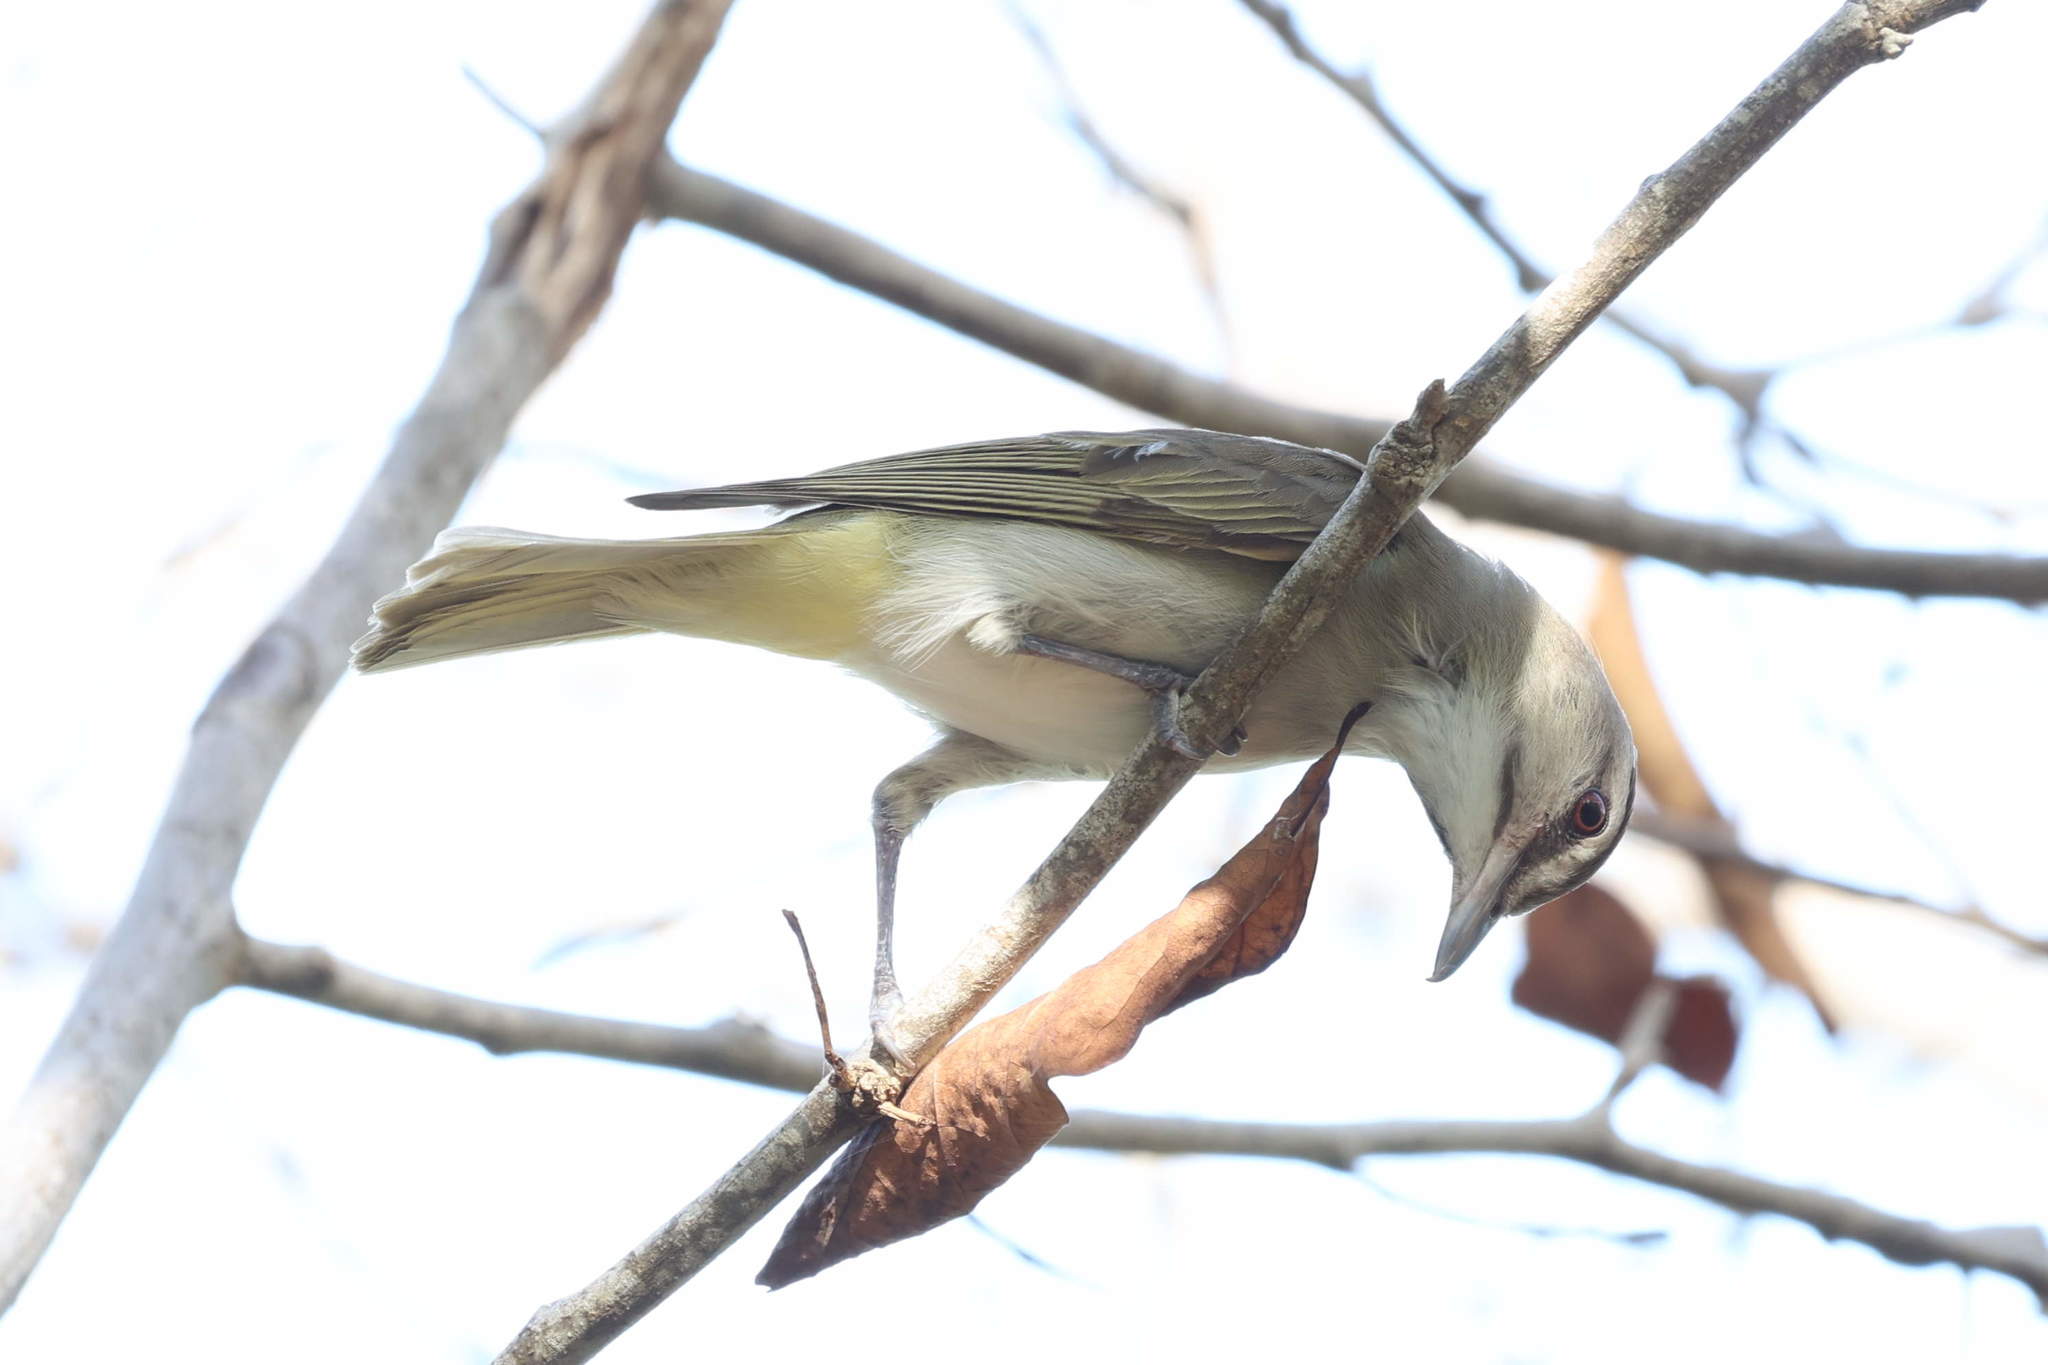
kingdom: Animalia
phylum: Chordata
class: Aves
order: Passeriformes
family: Vireonidae
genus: Vireo
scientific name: Vireo altiloquus
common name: Black-whiskered vireo
